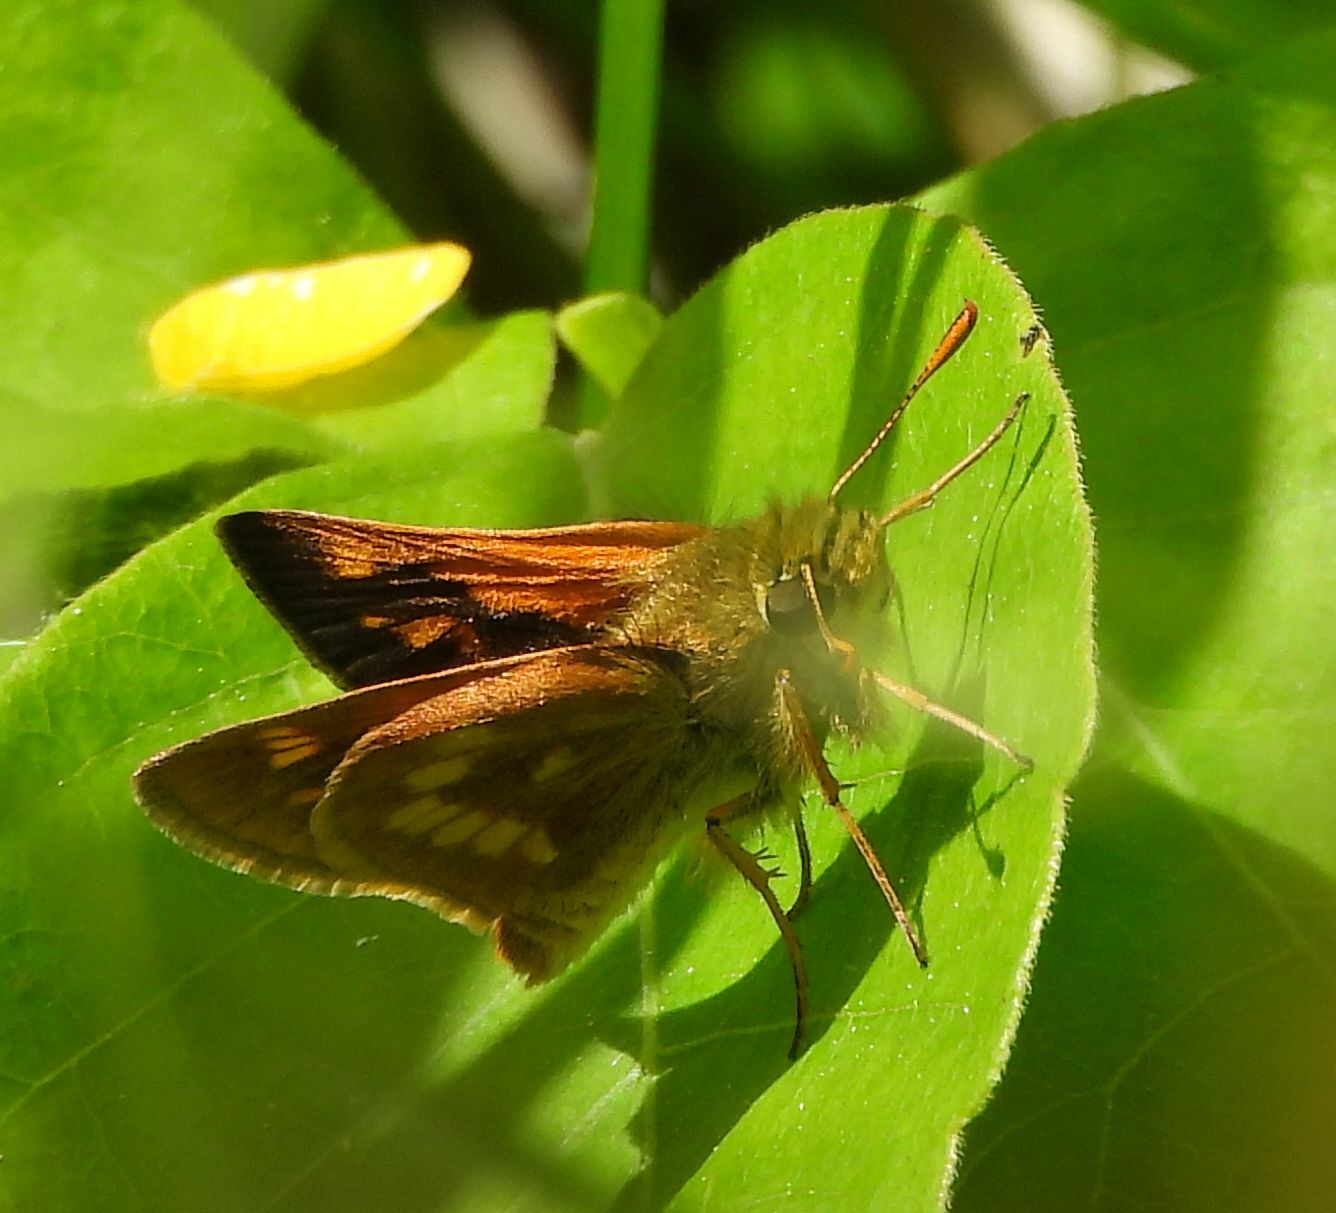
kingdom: Animalia
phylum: Arthropoda
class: Insecta
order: Lepidoptera
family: Hesperiidae
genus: Polites
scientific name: Polites mystic
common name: Long dash
